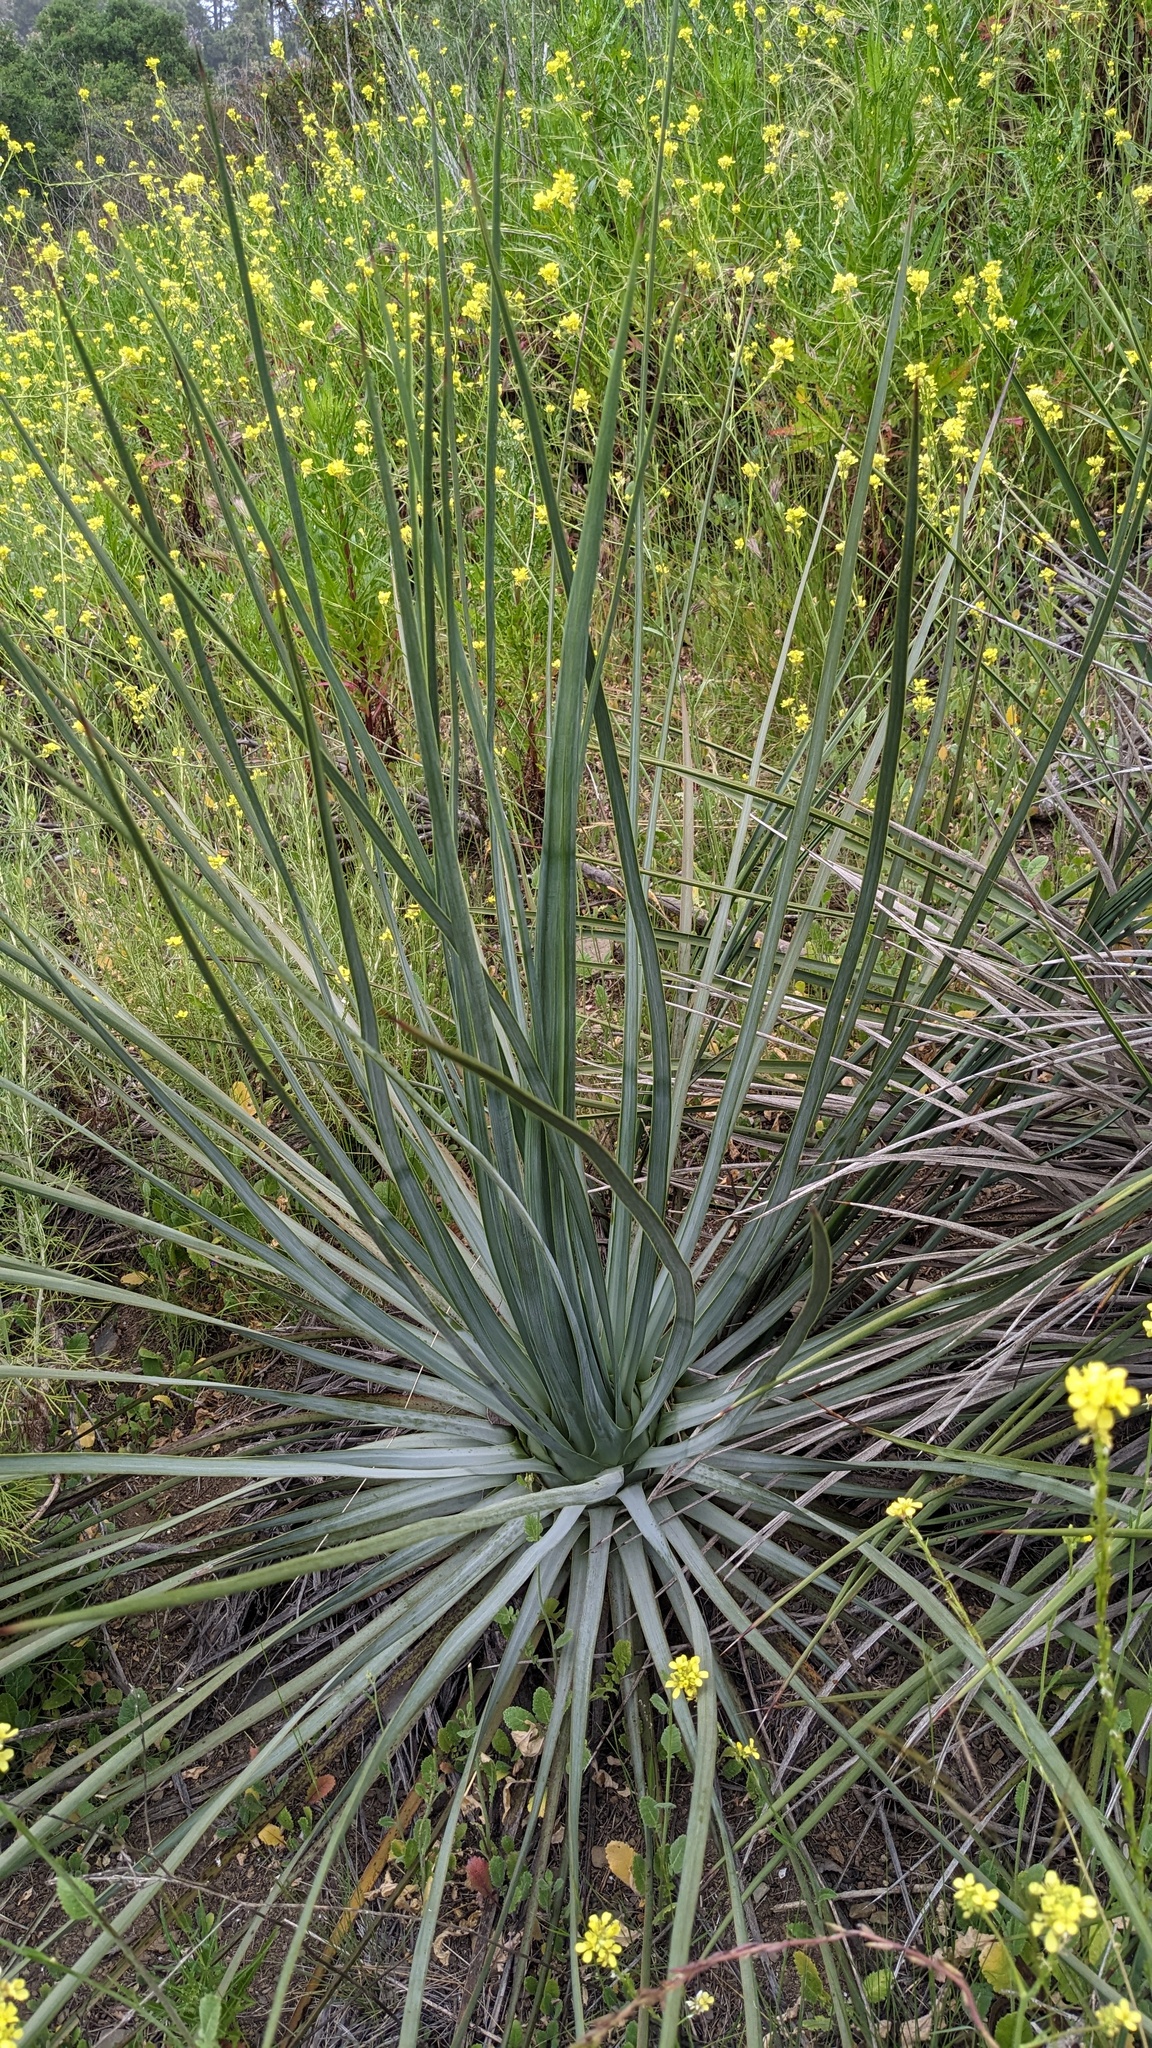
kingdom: Plantae
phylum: Tracheophyta
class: Liliopsida
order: Asparagales
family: Asparagaceae
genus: Hesperoyucca
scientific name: Hesperoyucca whipplei
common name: Our lord's-candle
